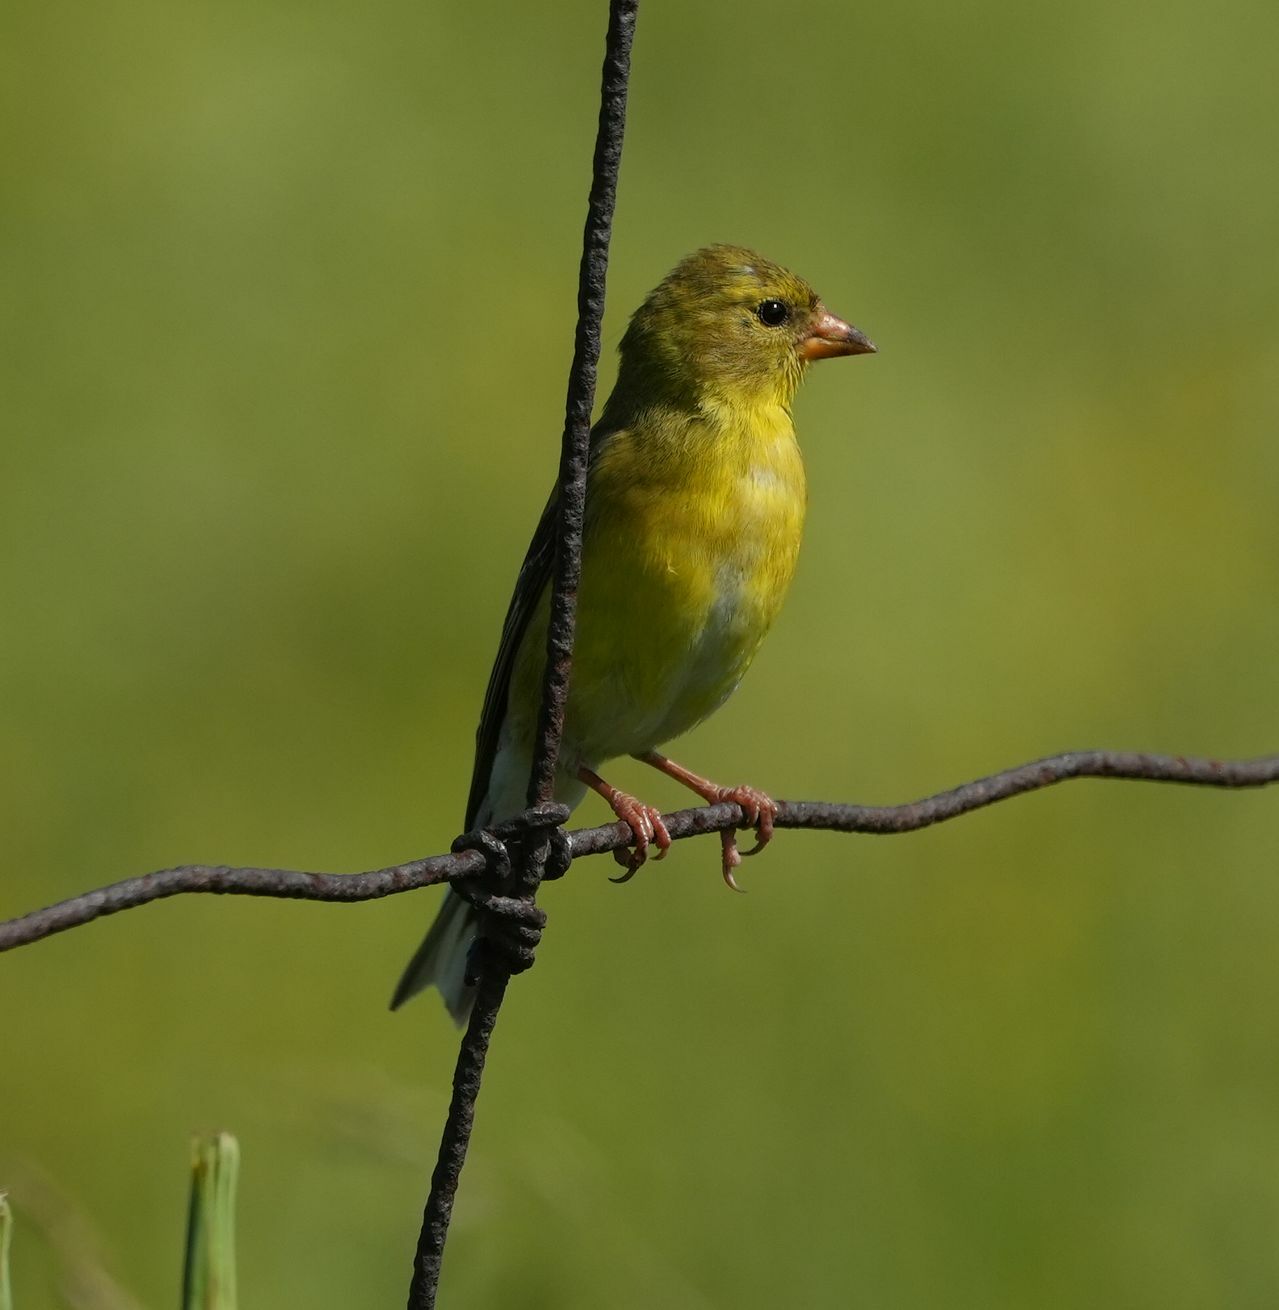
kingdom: Animalia
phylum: Chordata
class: Aves
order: Passeriformes
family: Fringillidae
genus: Spinus
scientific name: Spinus tristis
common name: American goldfinch
